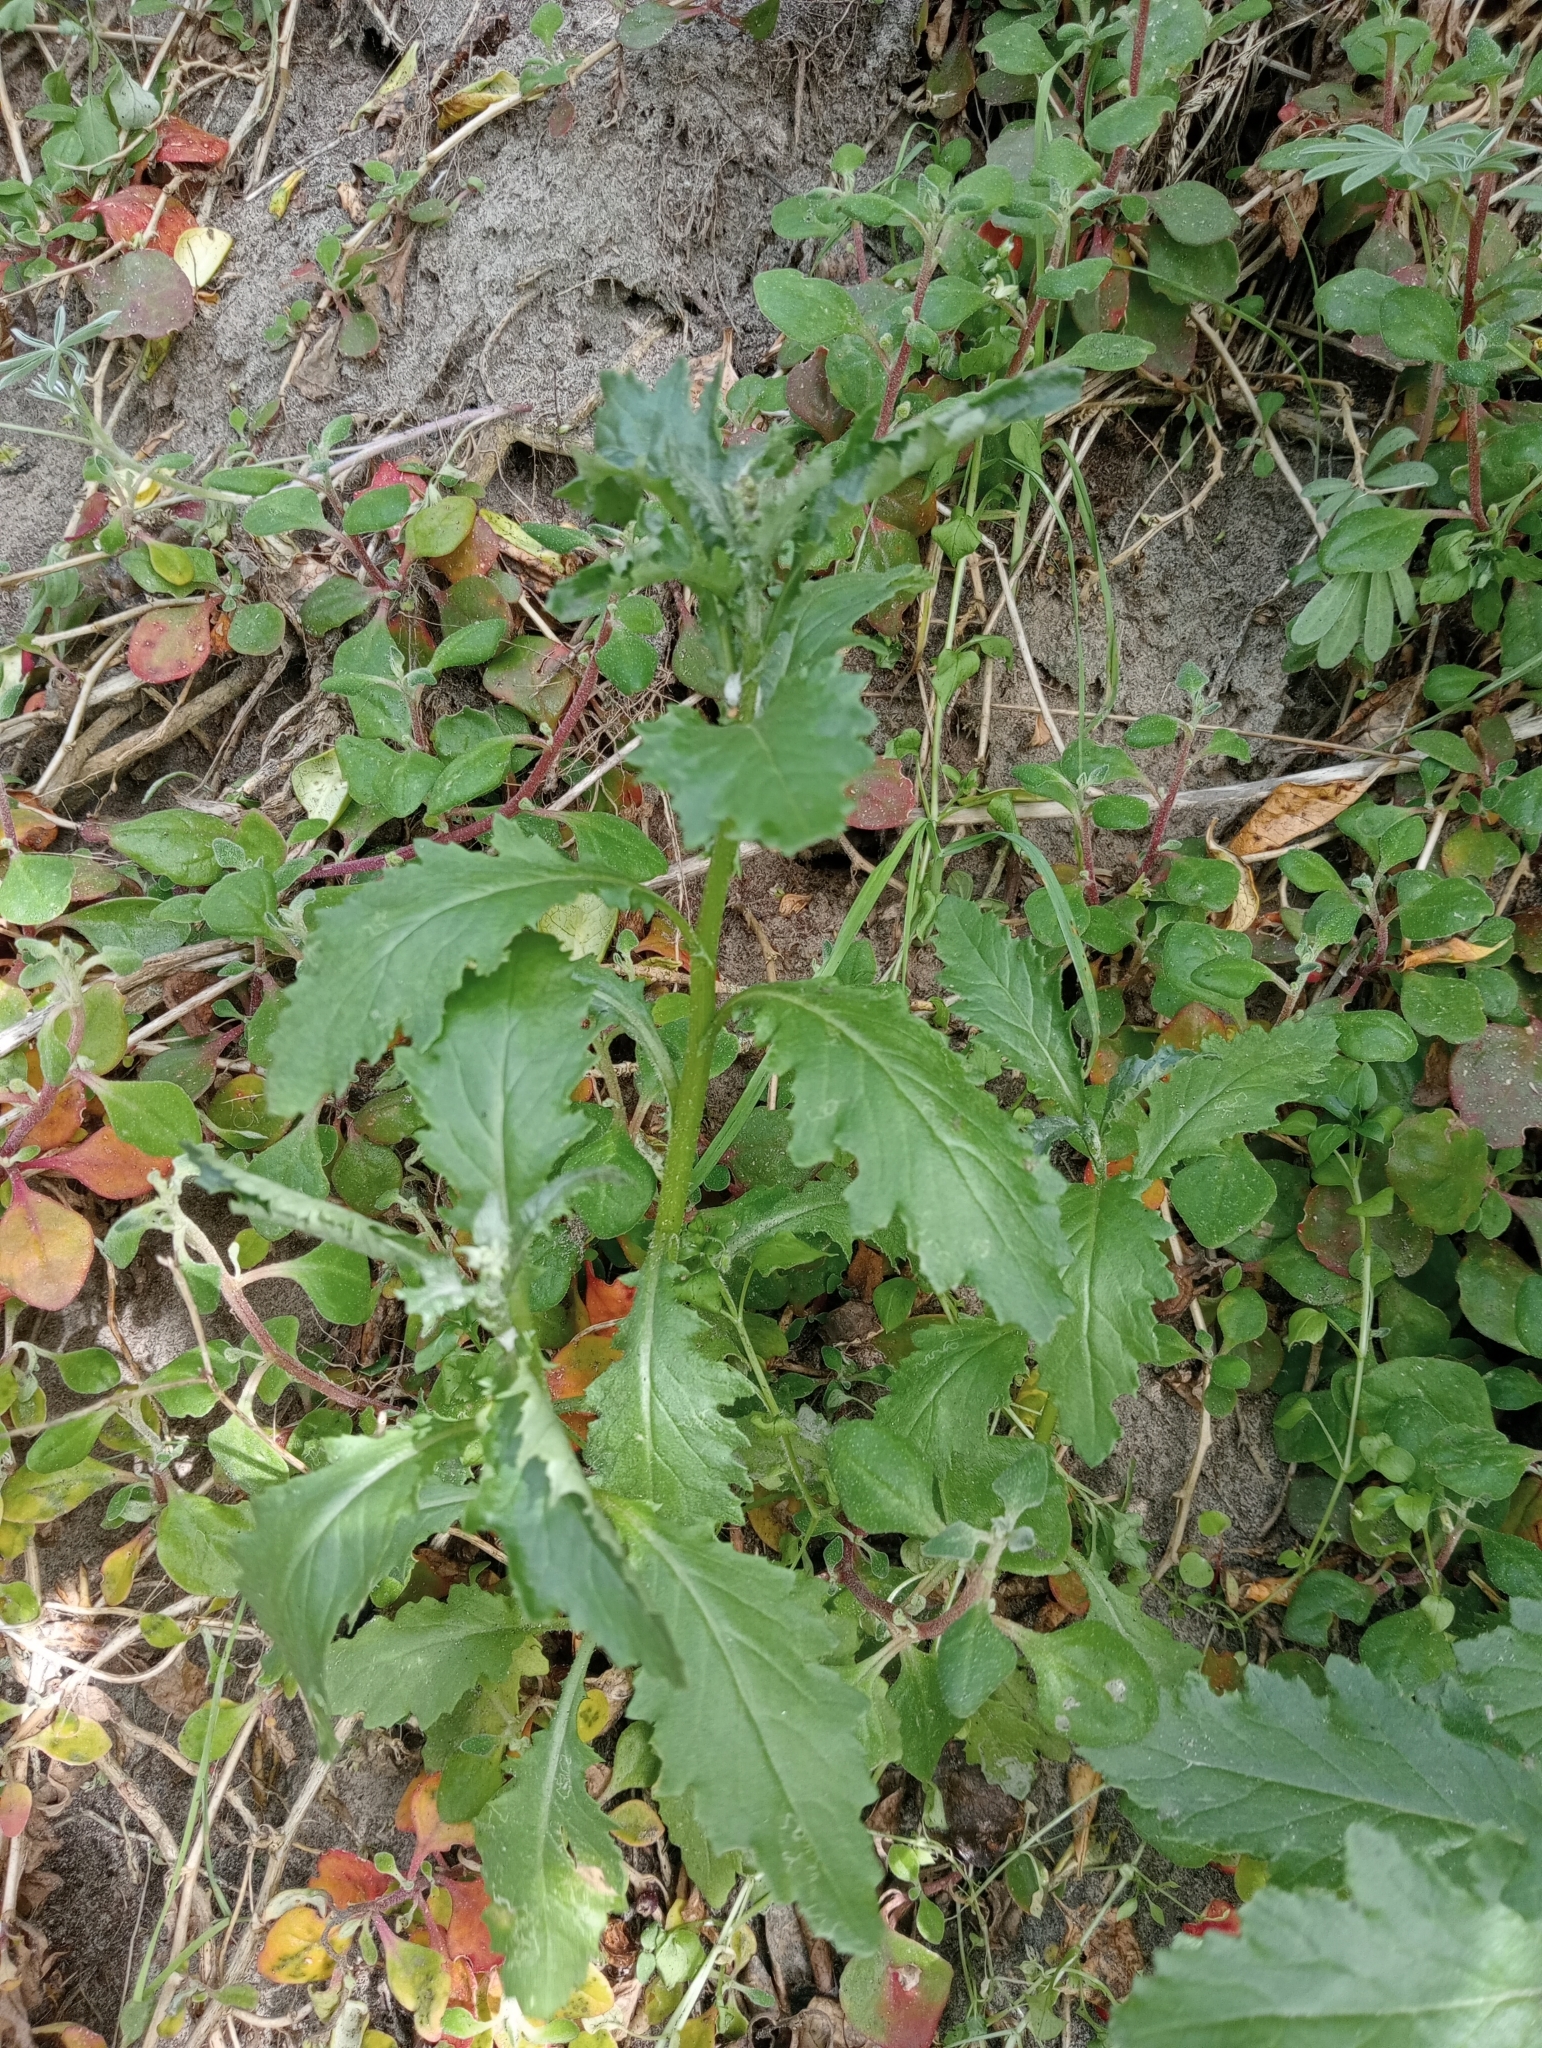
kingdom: Plantae
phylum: Tracheophyta
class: Magnoliopsida
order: Asterales
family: Asteraceae
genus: Senecio
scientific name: Senecio biserratus
